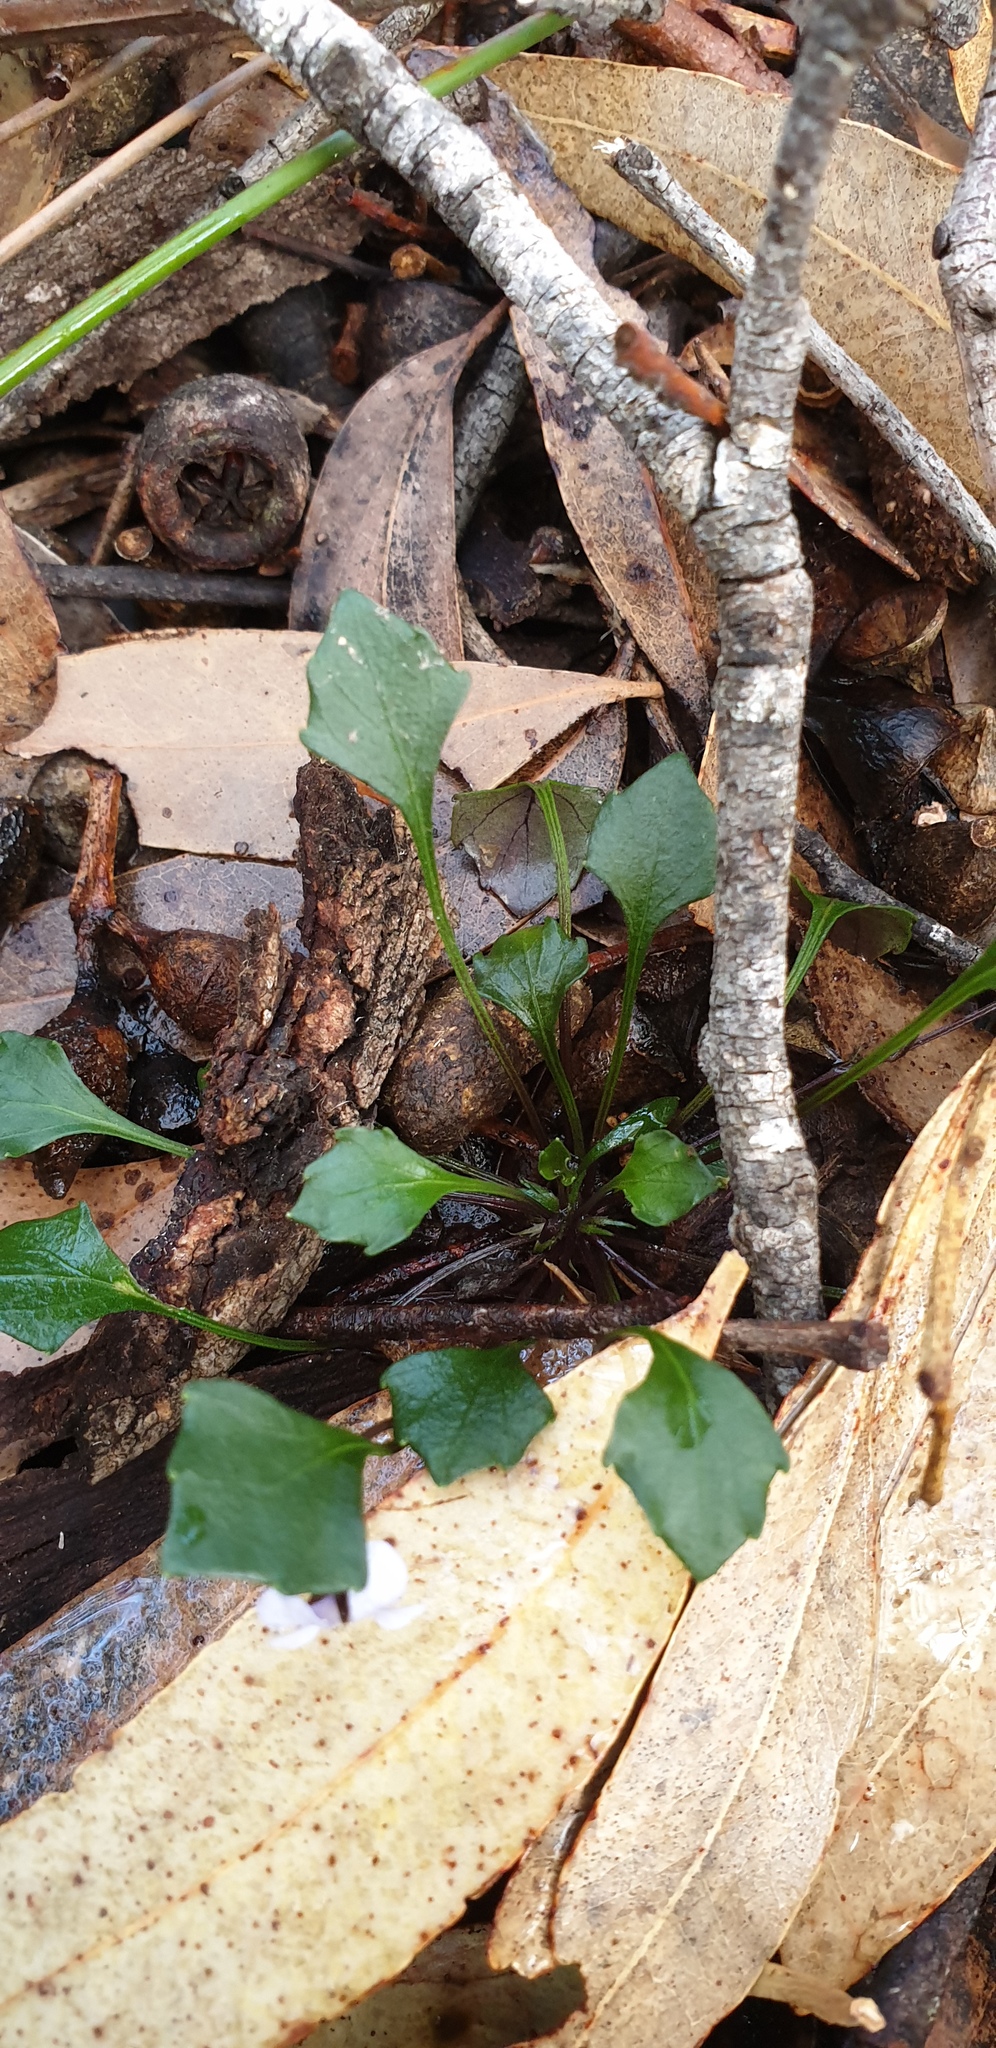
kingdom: Plantae
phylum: Tracheophyta
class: Magnoliopsida
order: Malpighiales
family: Violaceae
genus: Viola
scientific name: Viola sieberiana
